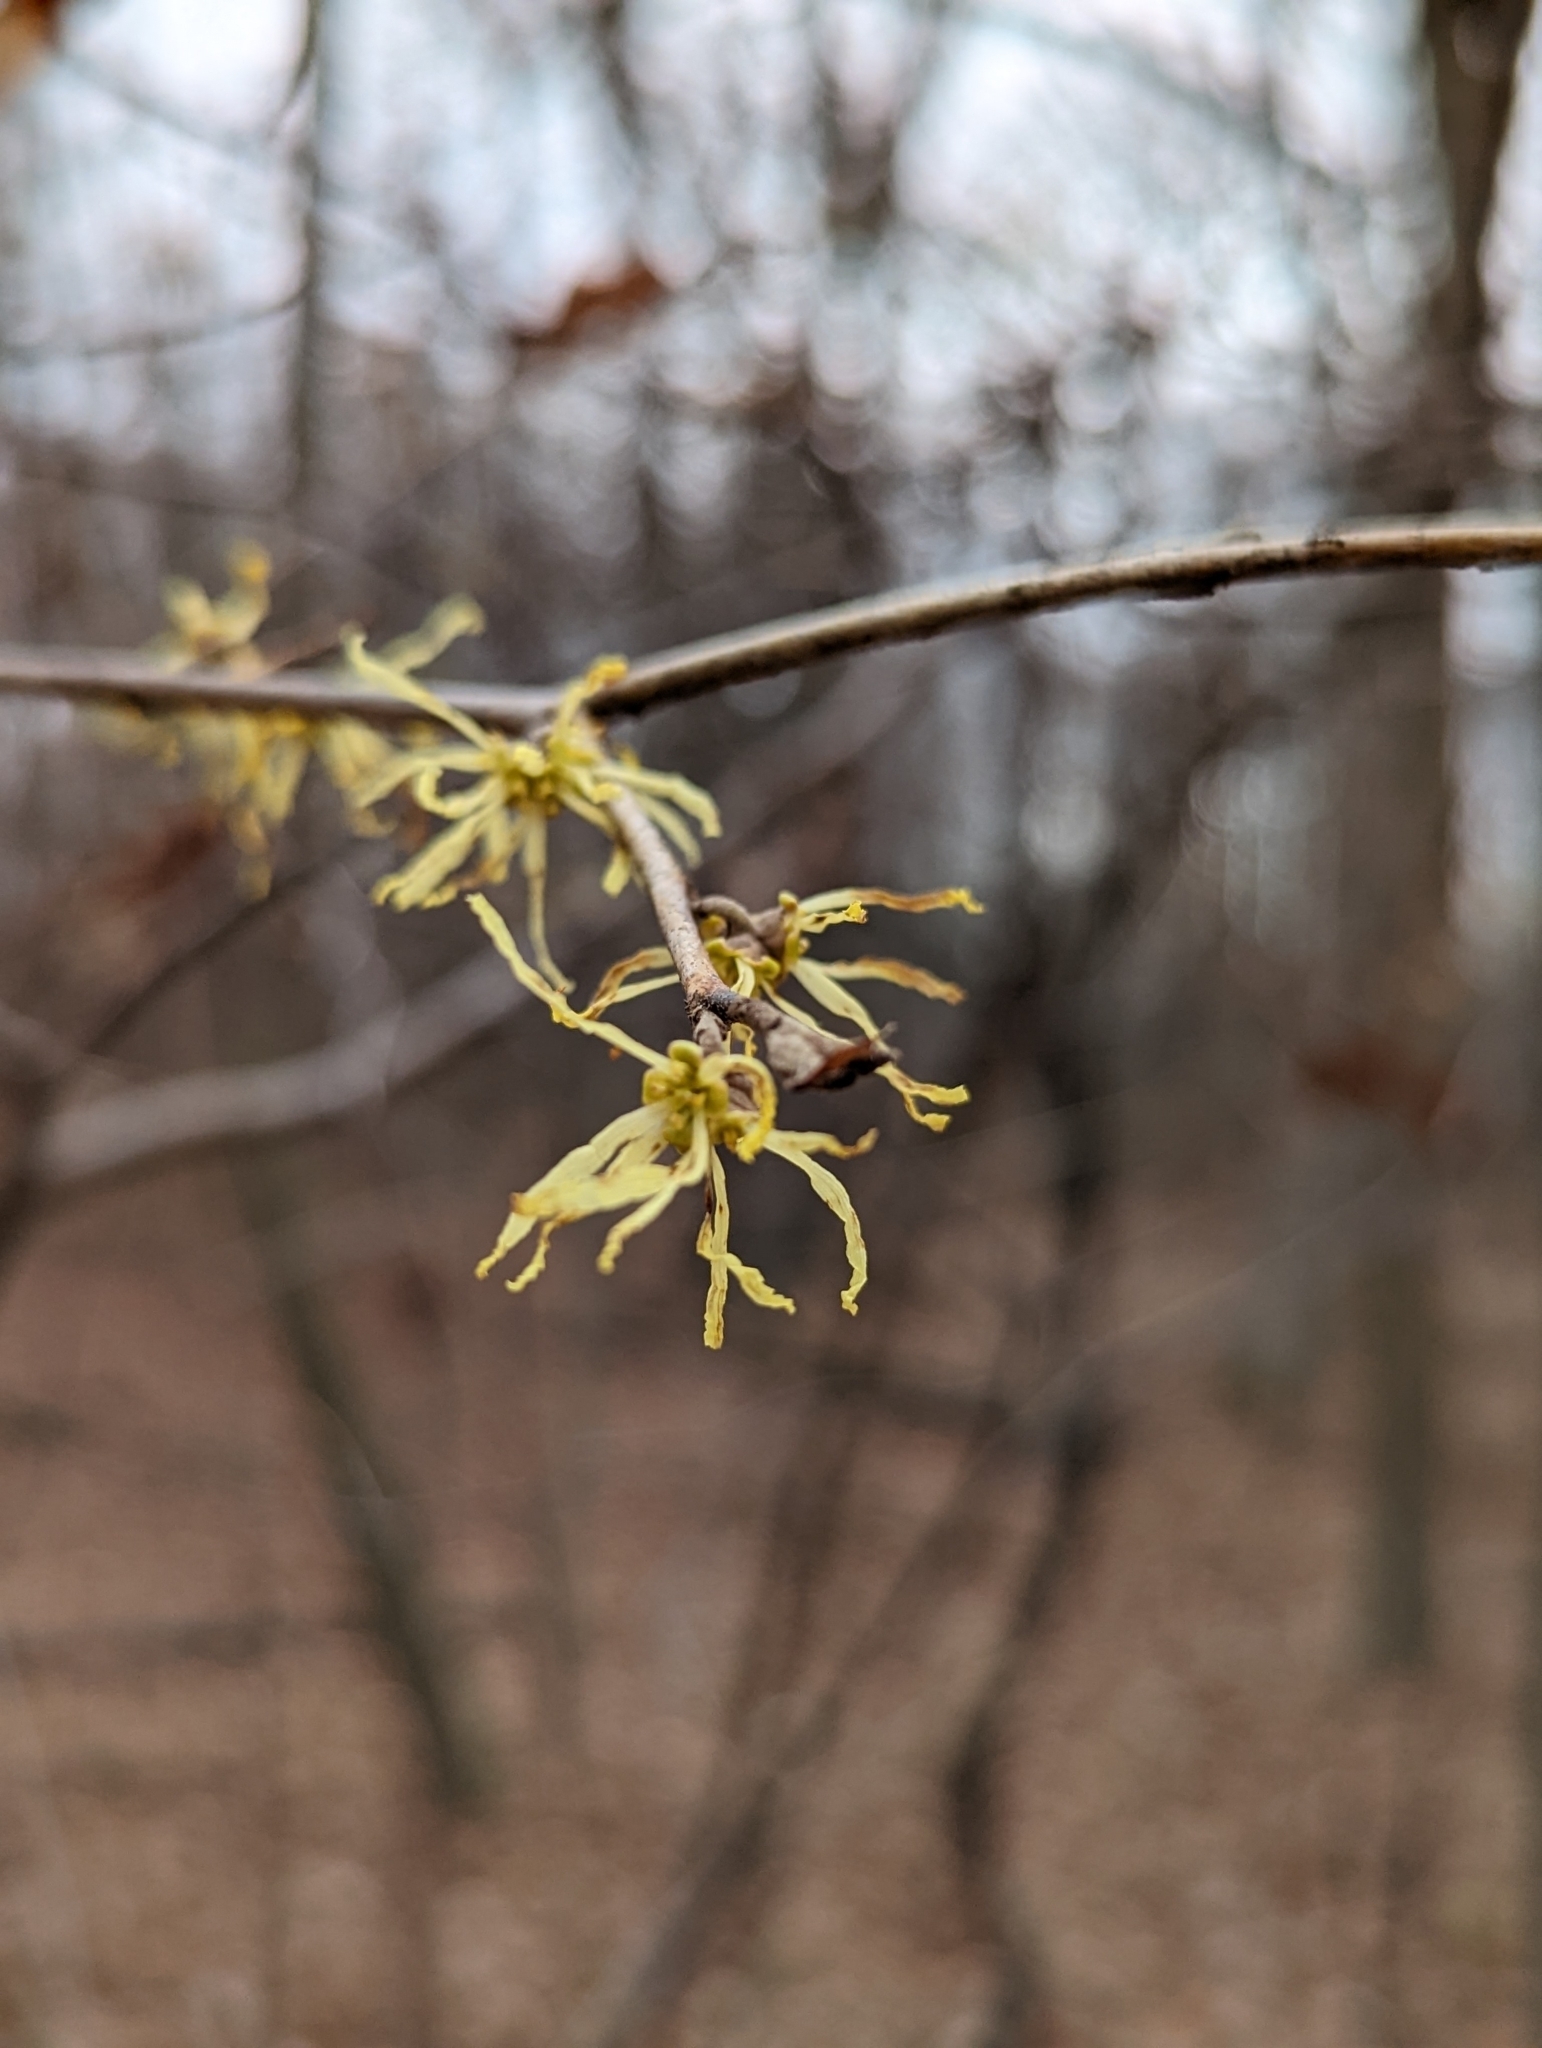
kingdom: Plantae
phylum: Tracheophyta
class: Magnoliopsida
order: Saxifragales
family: Hamamelidaceae
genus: Hamamelis
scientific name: Hamamelis virginiana
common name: Witch-hazel
